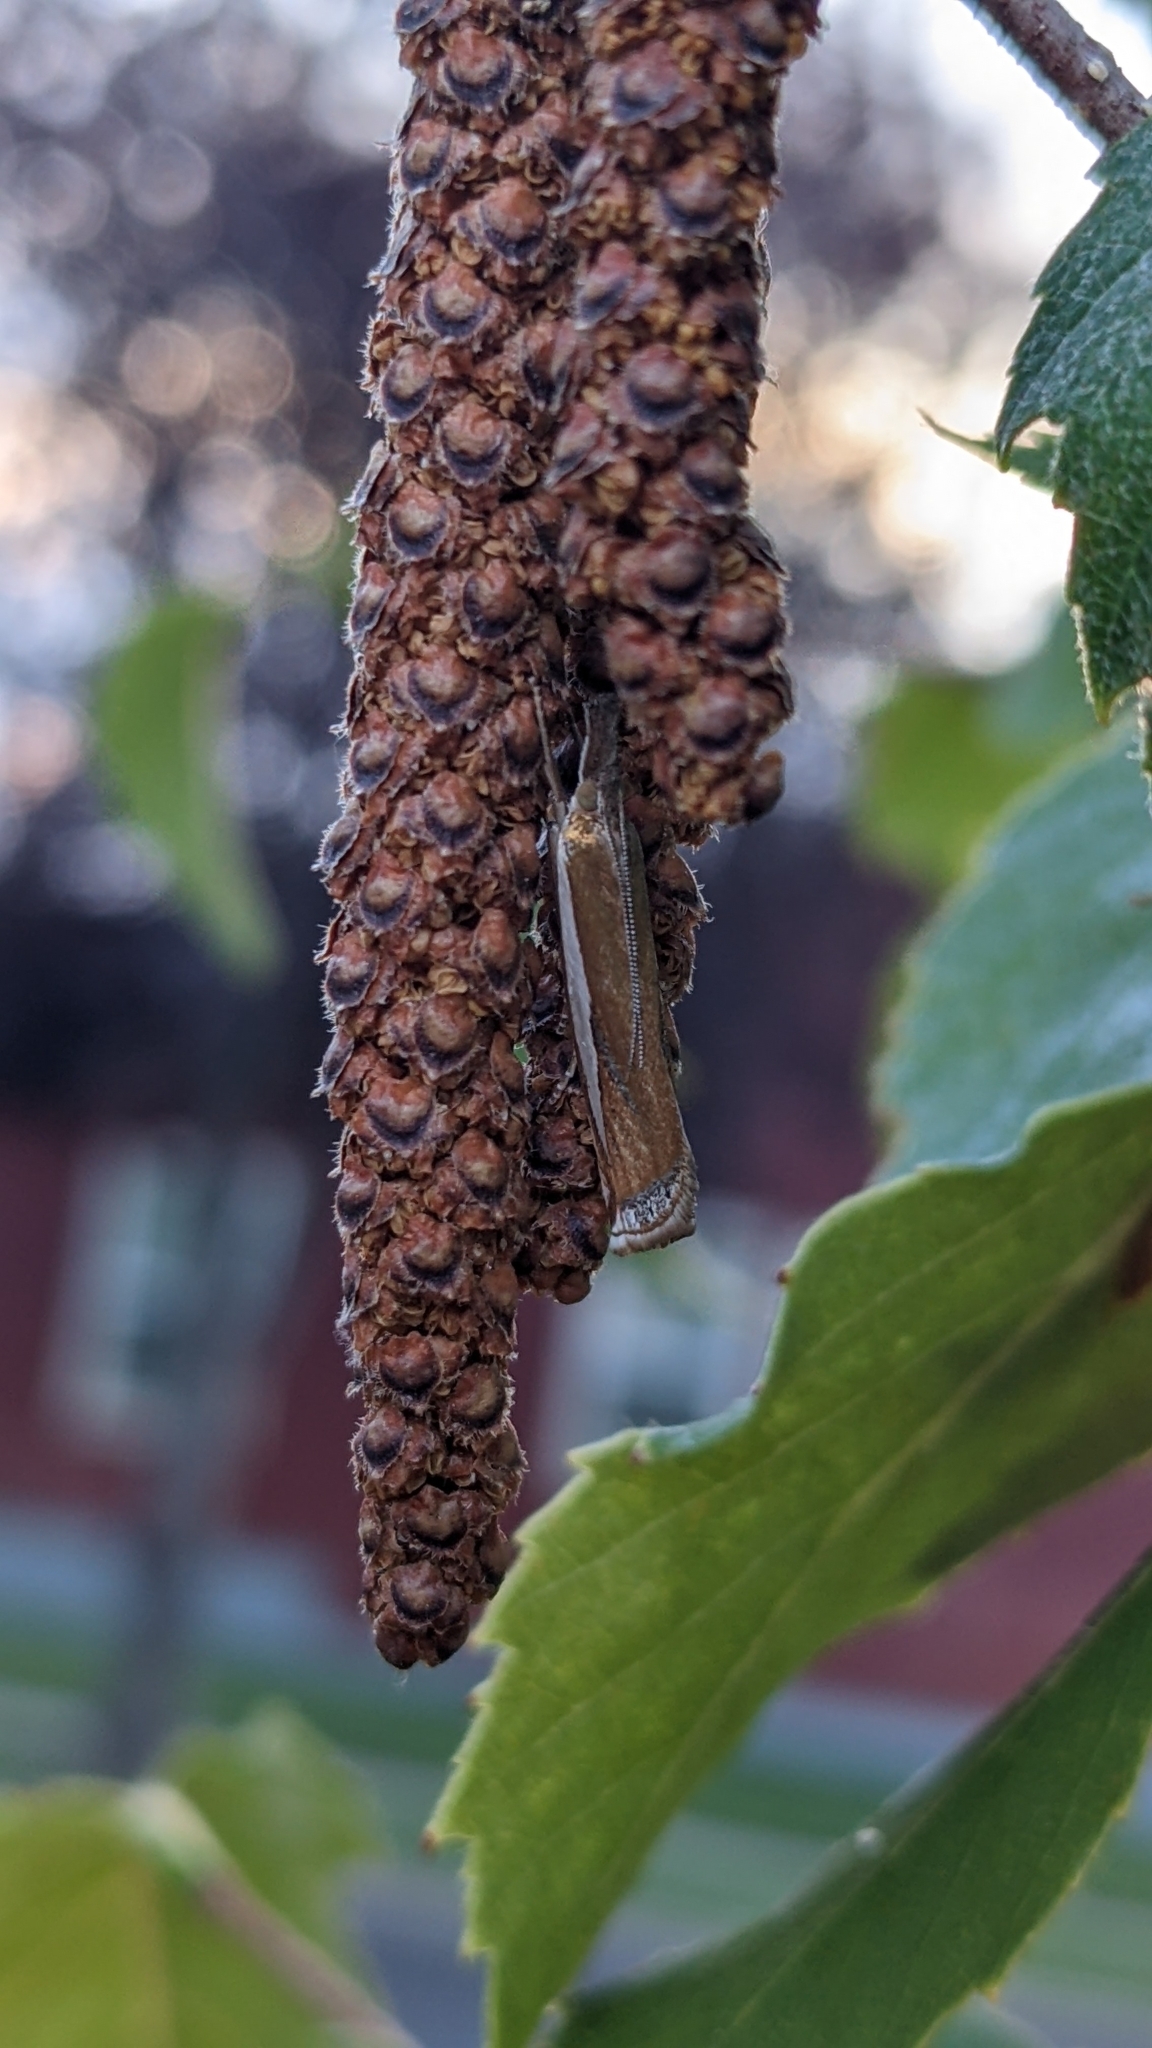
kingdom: Animalia
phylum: Arthropoda
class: Insecta
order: Lepidoptera
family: Crambidae
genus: Crambus
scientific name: Crambus praefectellus
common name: Common grass-veneer
